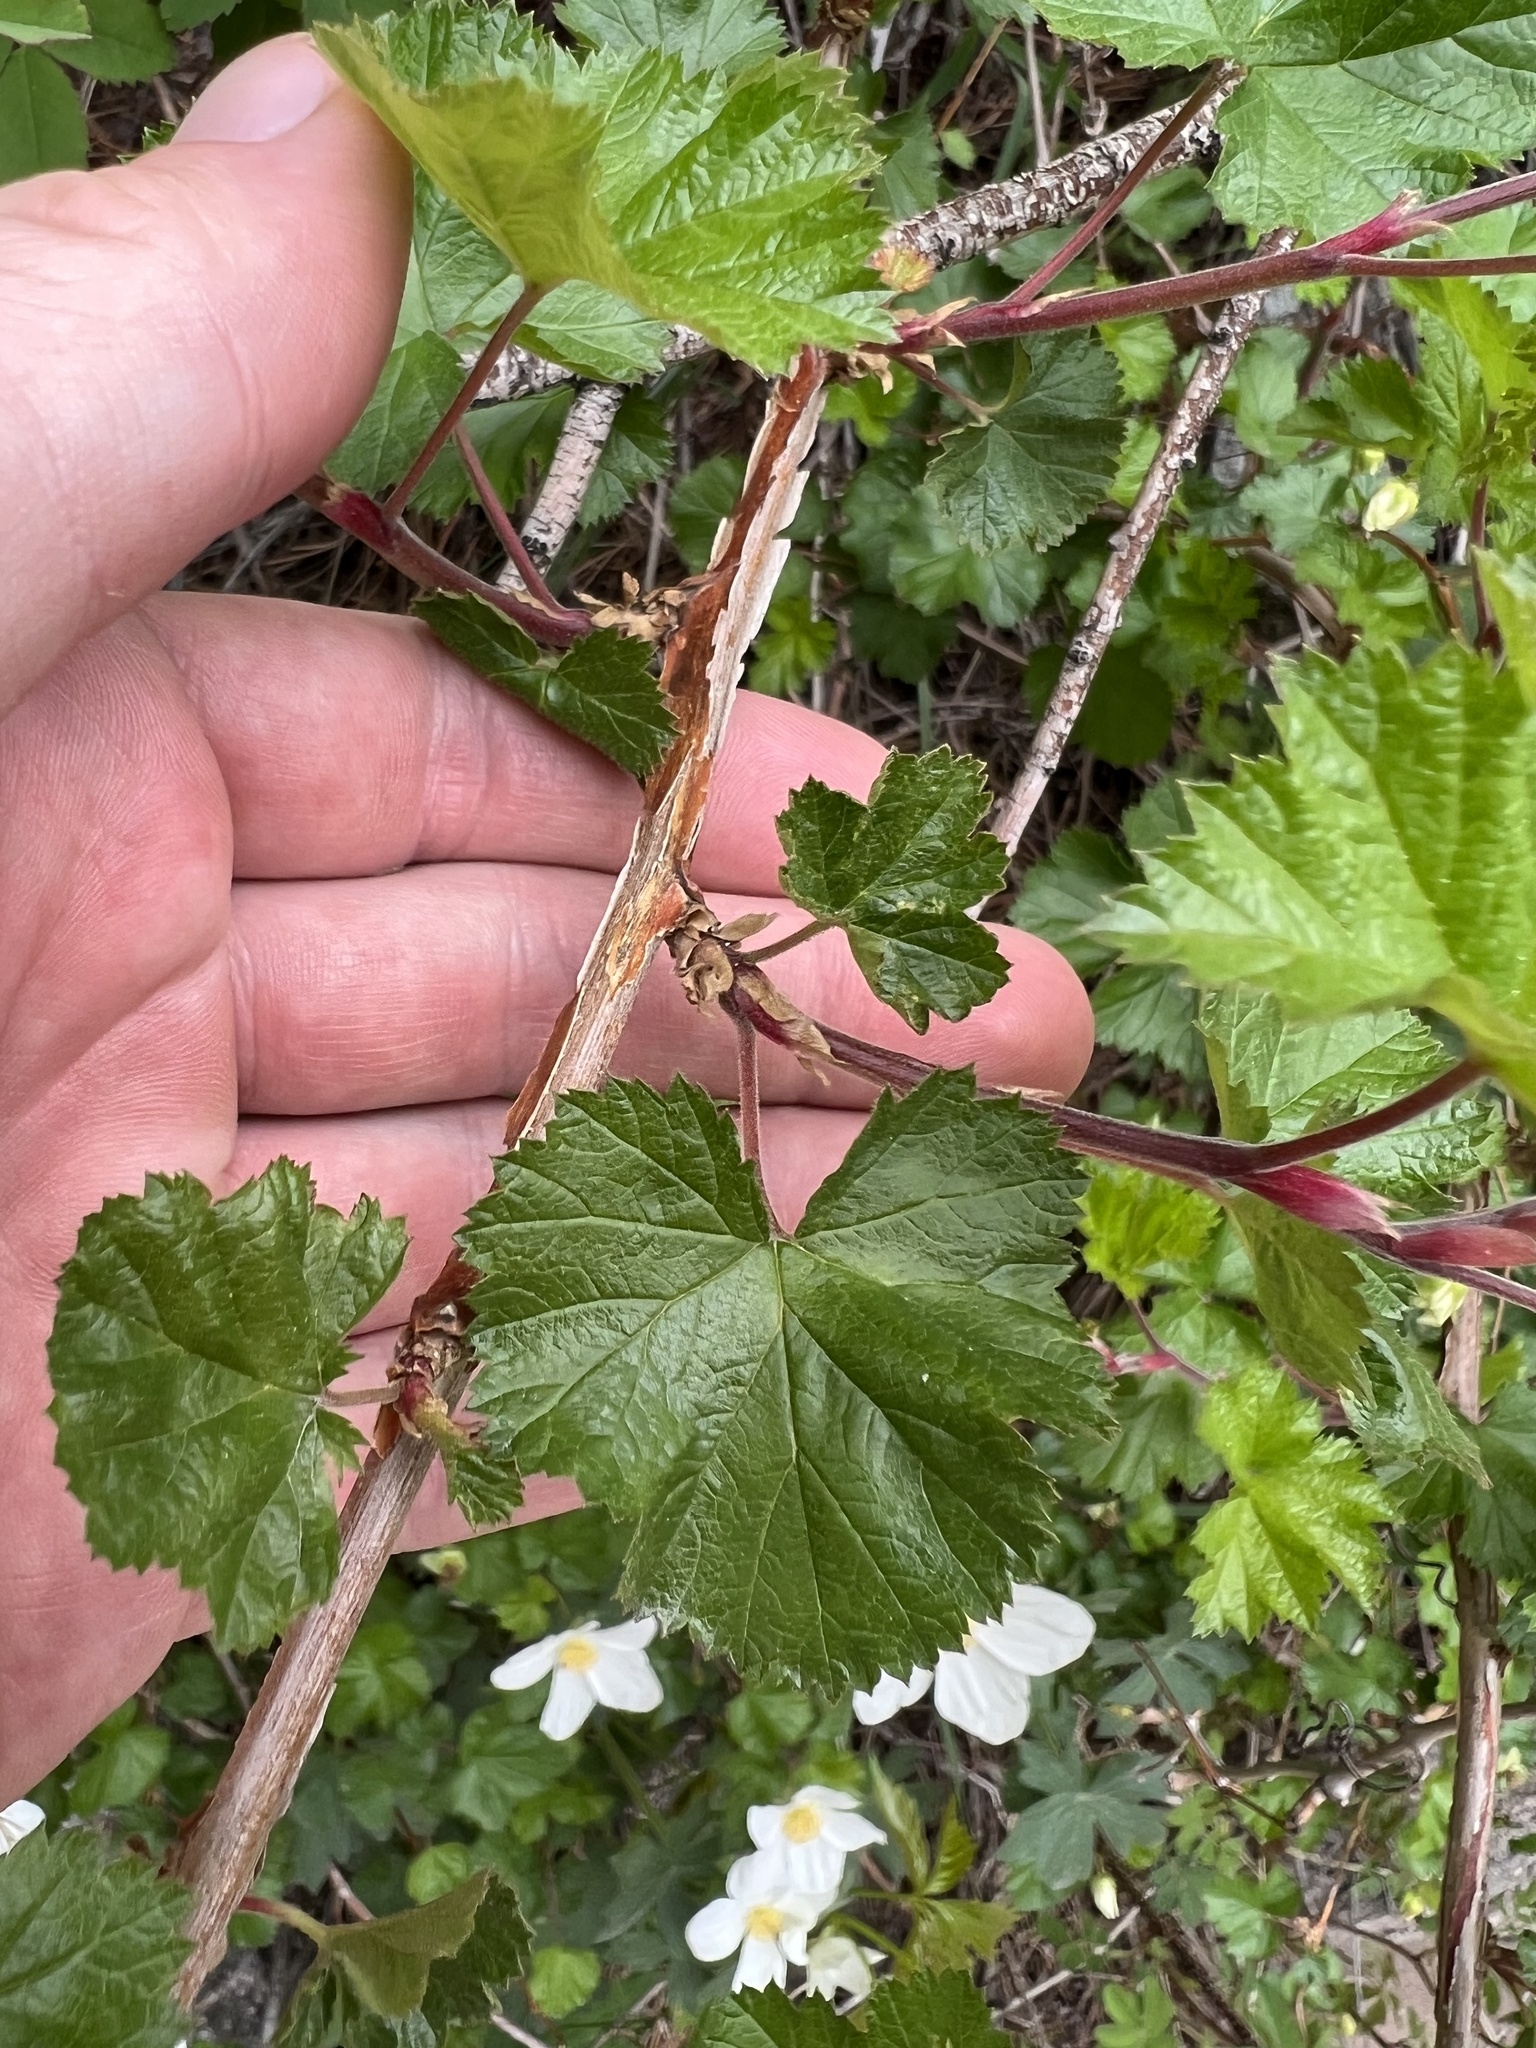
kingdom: Plantae
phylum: Tracheophyta
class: Magnoliopsida
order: Rosales
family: Rosaceae
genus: Rubus
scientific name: Rubus deliciosus
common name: Rocky mountain raspberry
